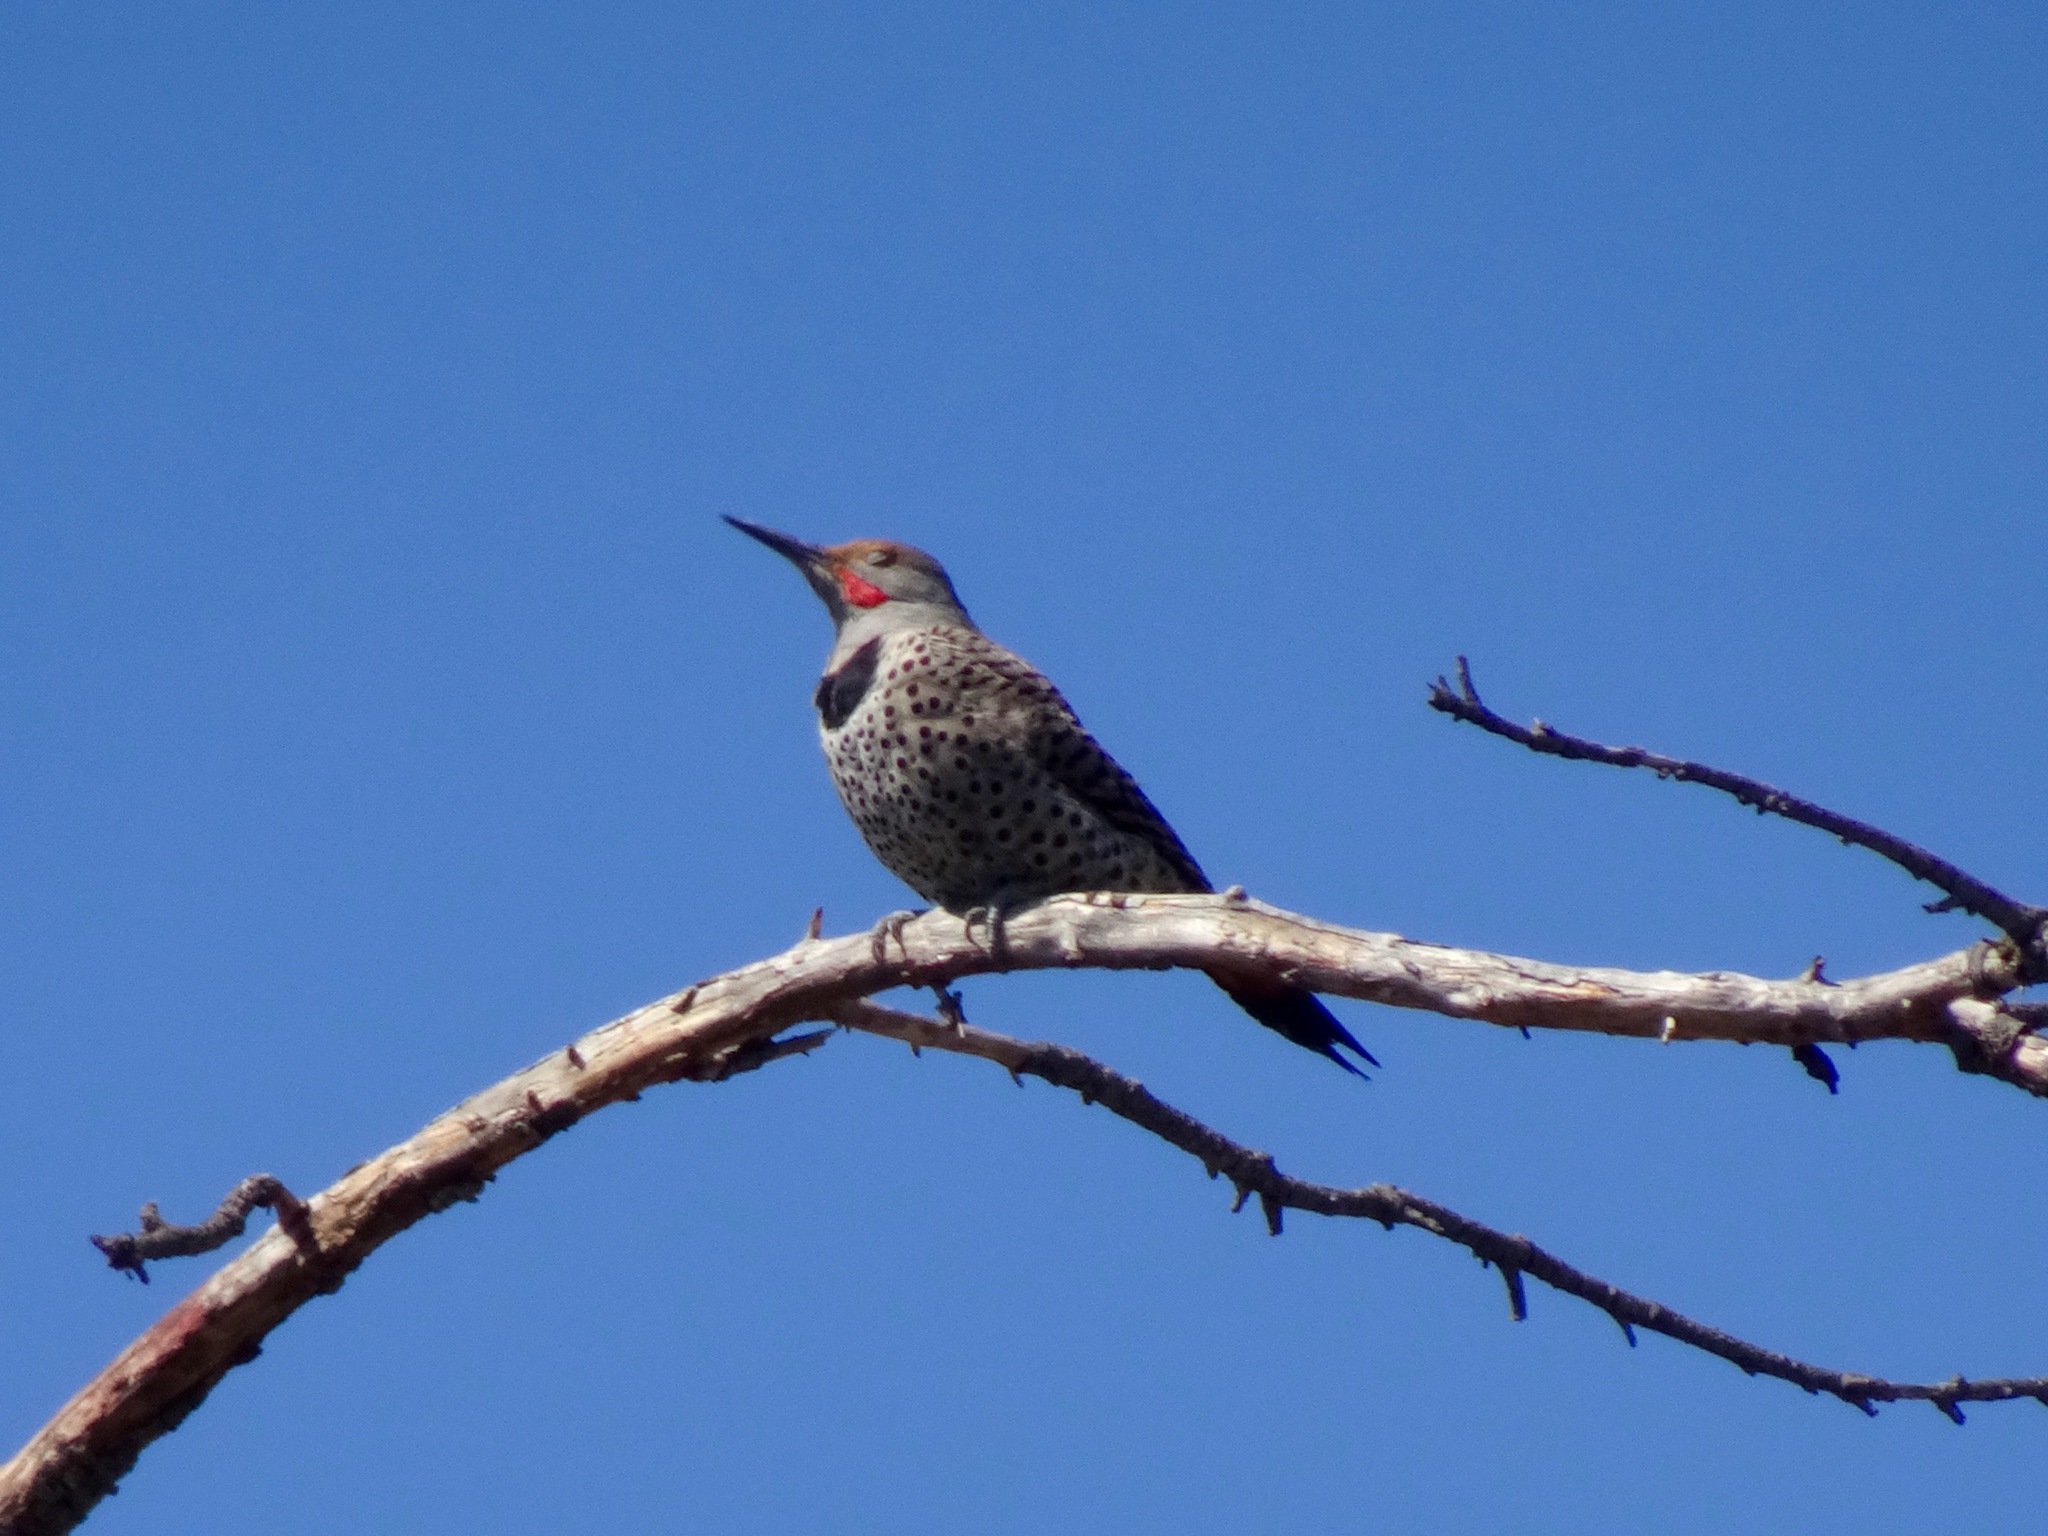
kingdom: Animalia
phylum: Chordata
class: Aves
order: Piciformes
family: Picidae
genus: Colaptes
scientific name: Colaptes auratus
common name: Northern flicker
